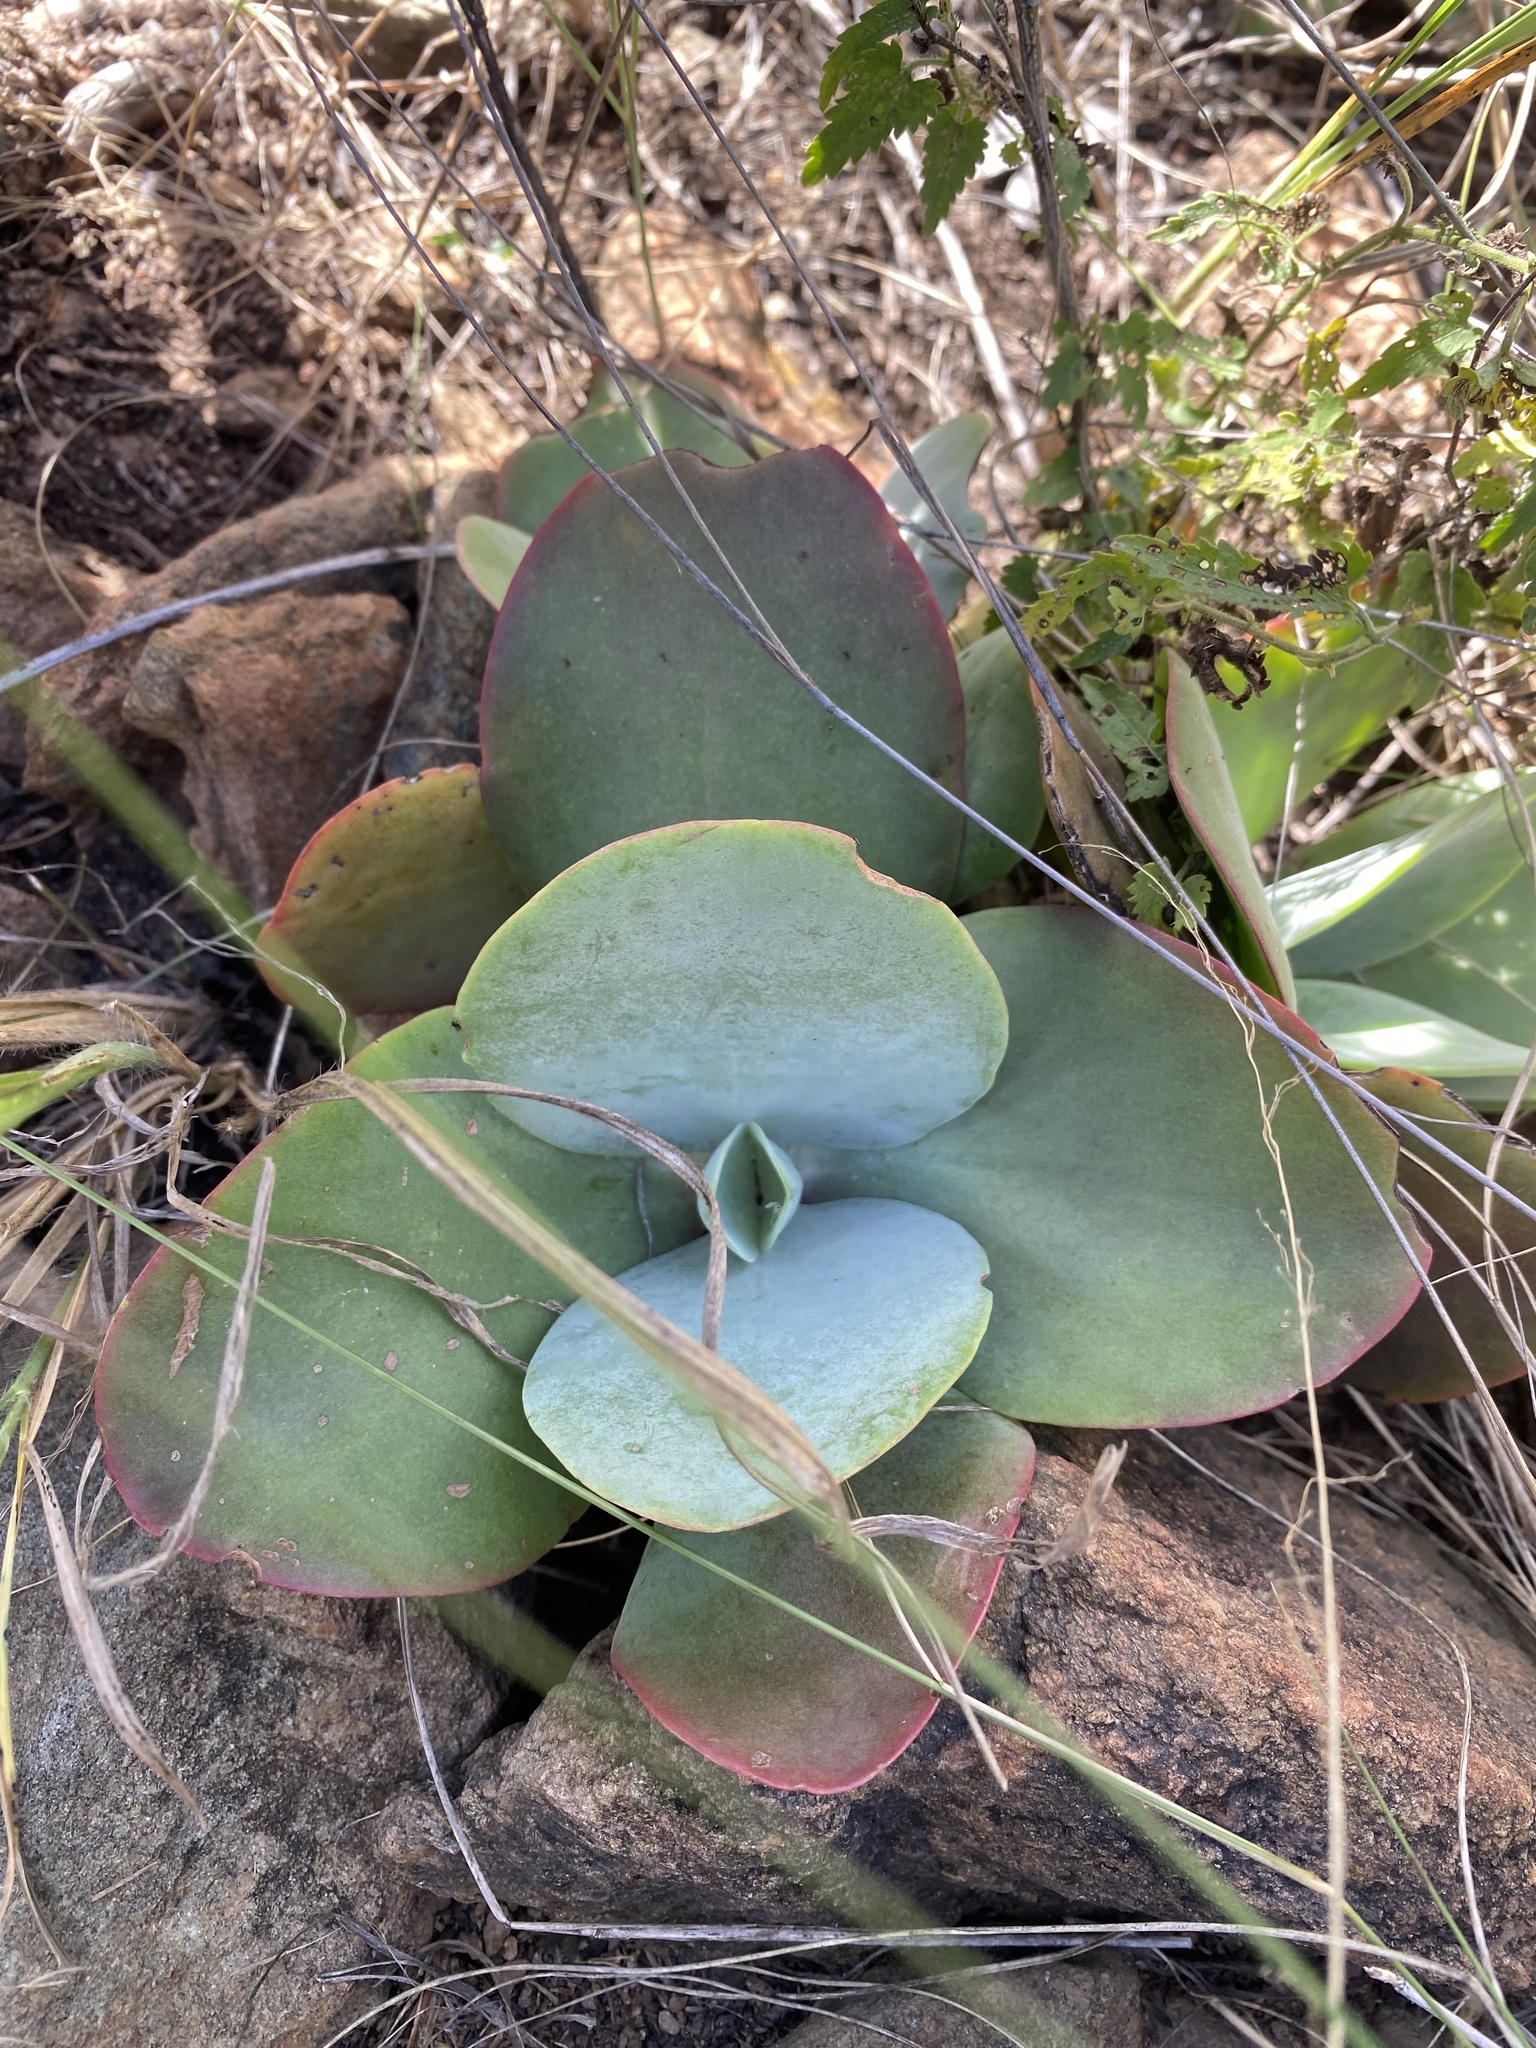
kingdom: Plantae
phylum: Tracheophyta
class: Magnoliopsida
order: Saxifragales
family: Crassulaceae
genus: Kalanchoe
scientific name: Kalanchoe paniculata
